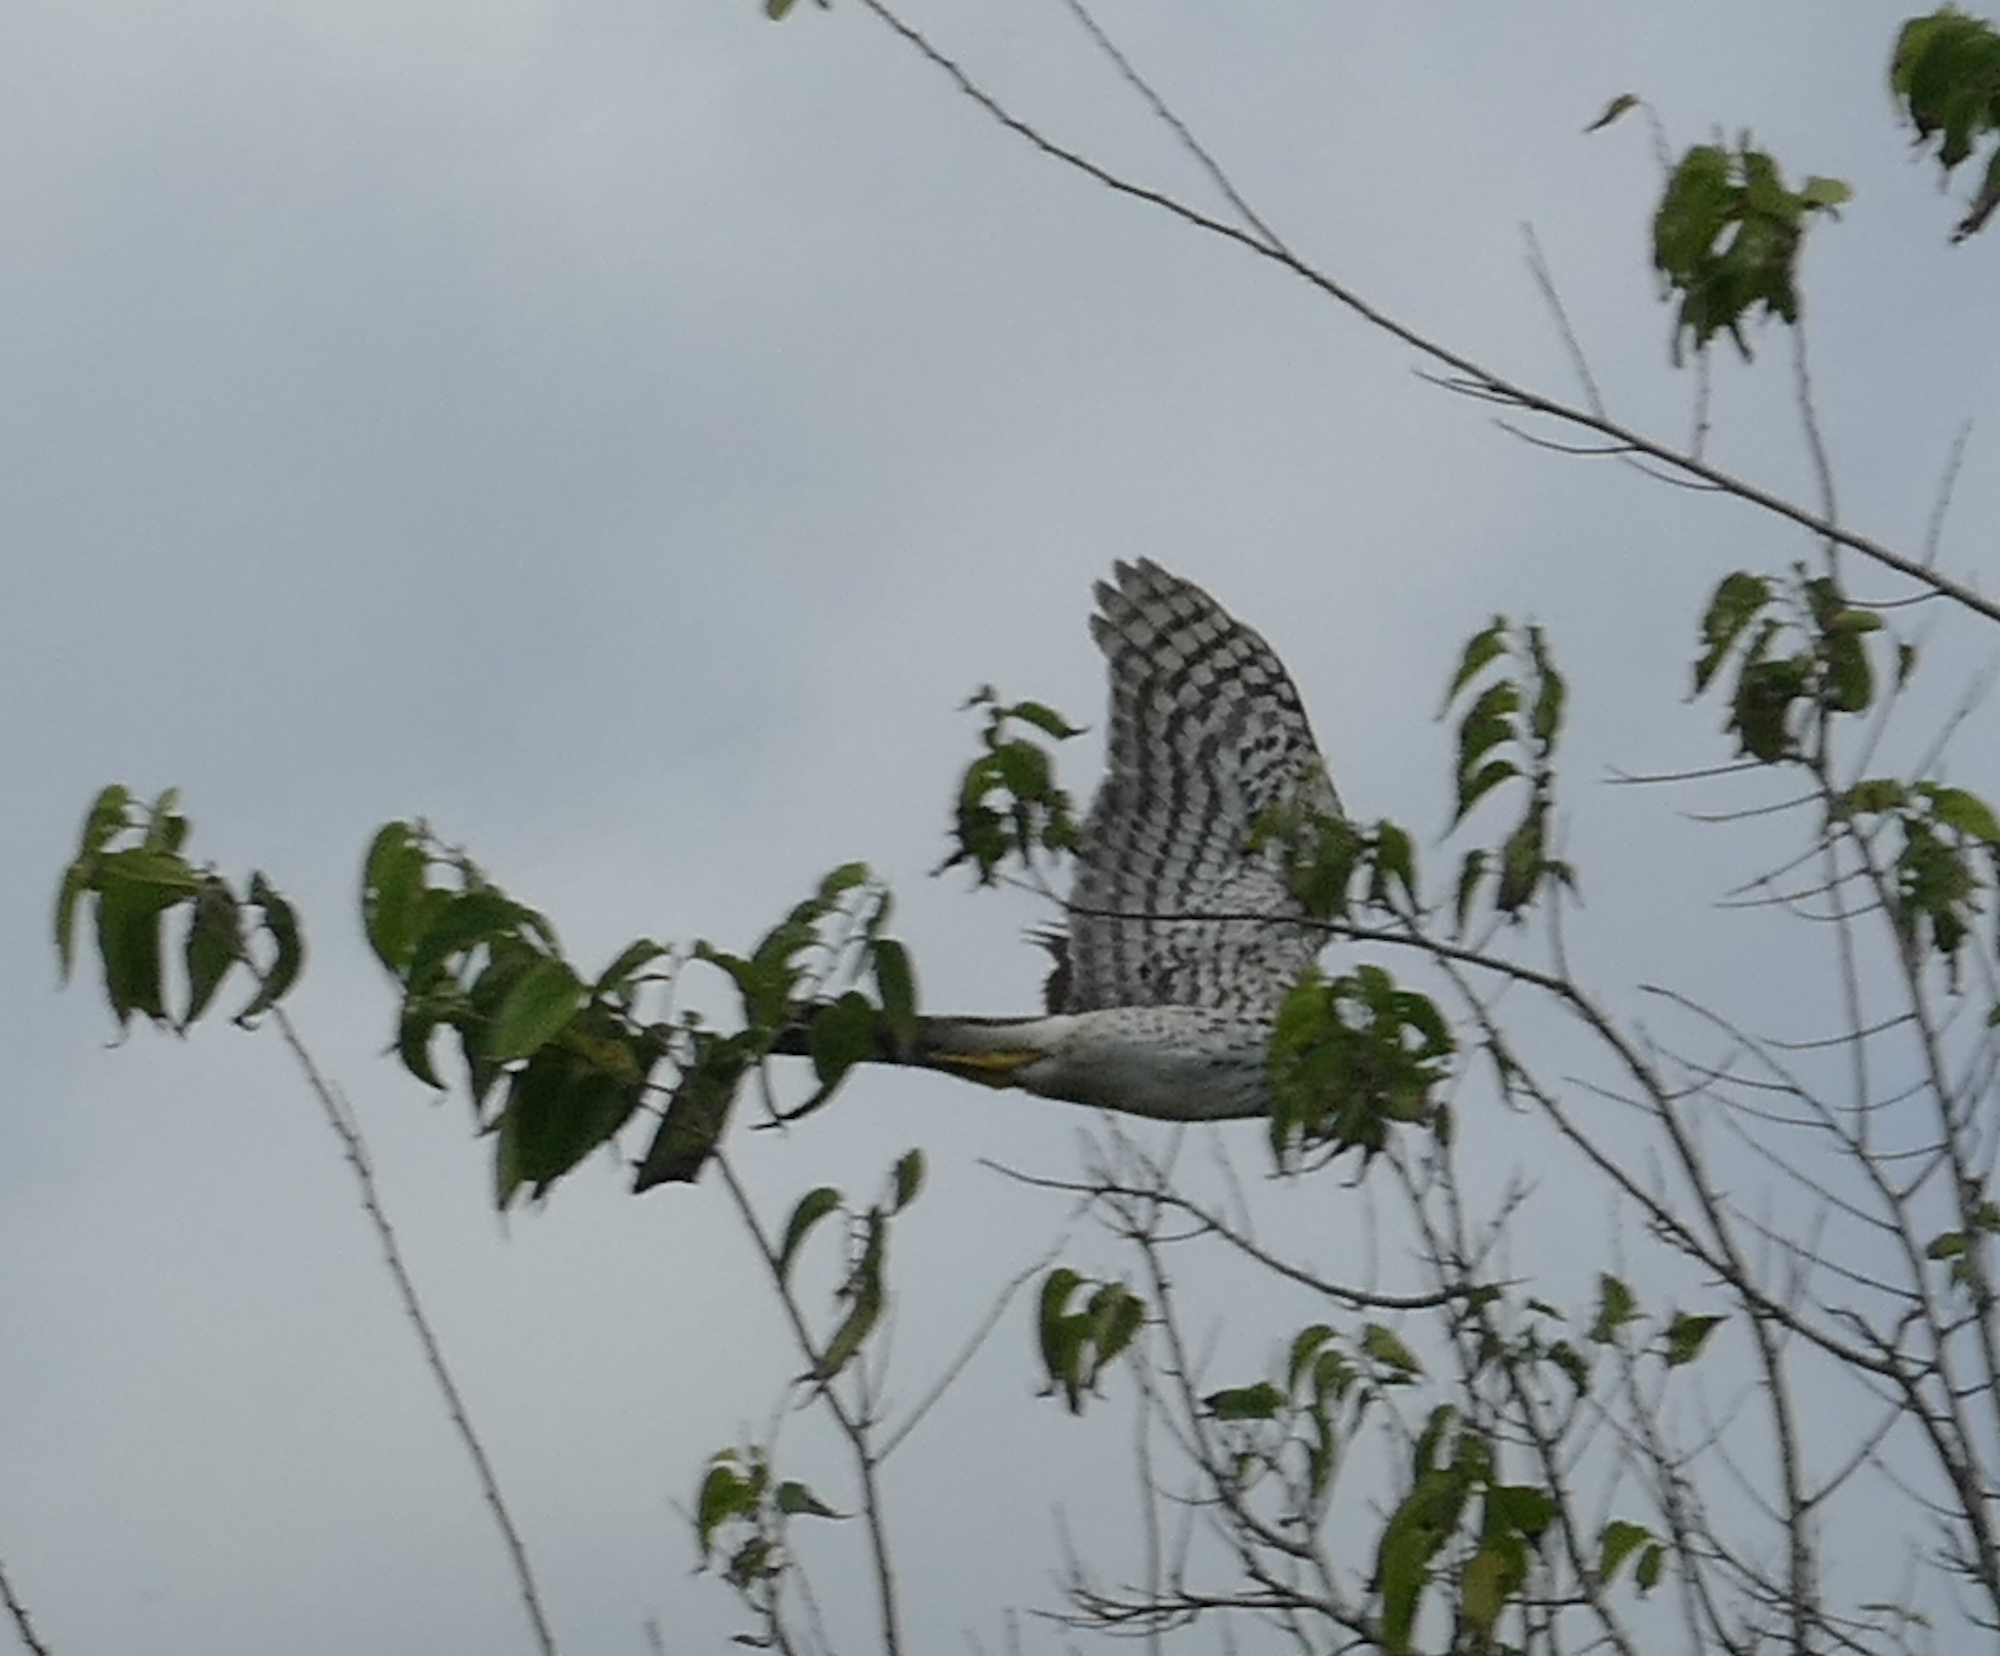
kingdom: Animalia
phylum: Chordata
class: Aves
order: Accipitriformes
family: Accipitridae
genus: Accipiter
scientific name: Accipiter cooperii
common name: Cooper's hawk
